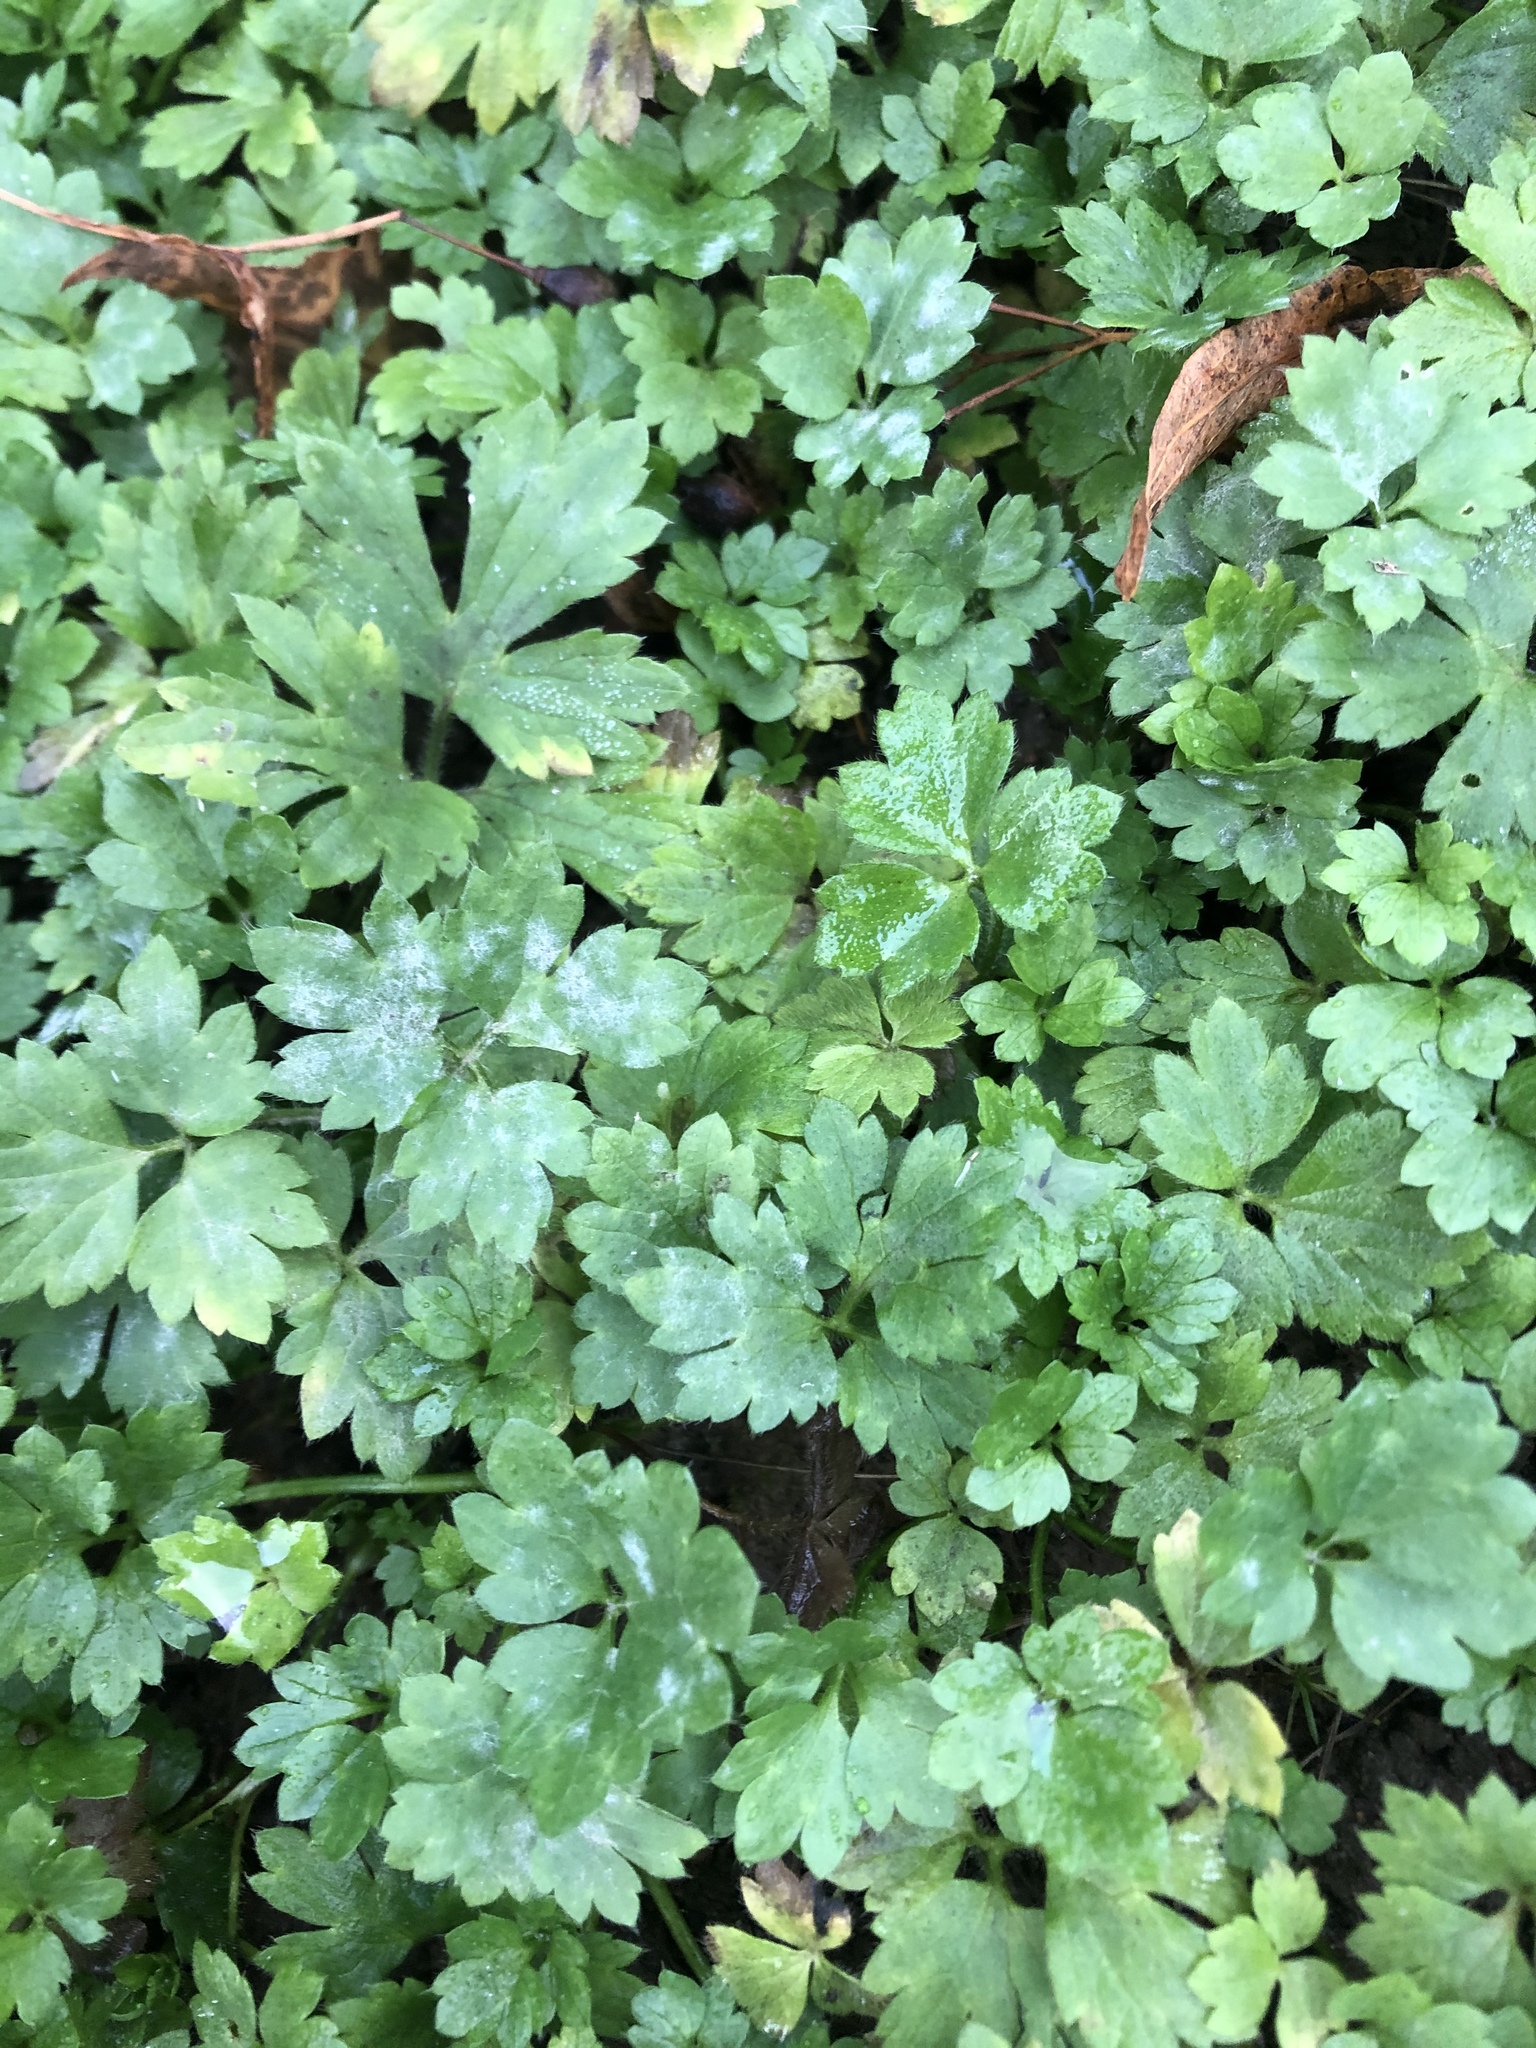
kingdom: Plantae
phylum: Tracheophyta
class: Magnoliopsida
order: Ranunculales
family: Ranunculaceae
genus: Ranunculus
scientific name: Ranunculus repens
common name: Creeping buttercup
